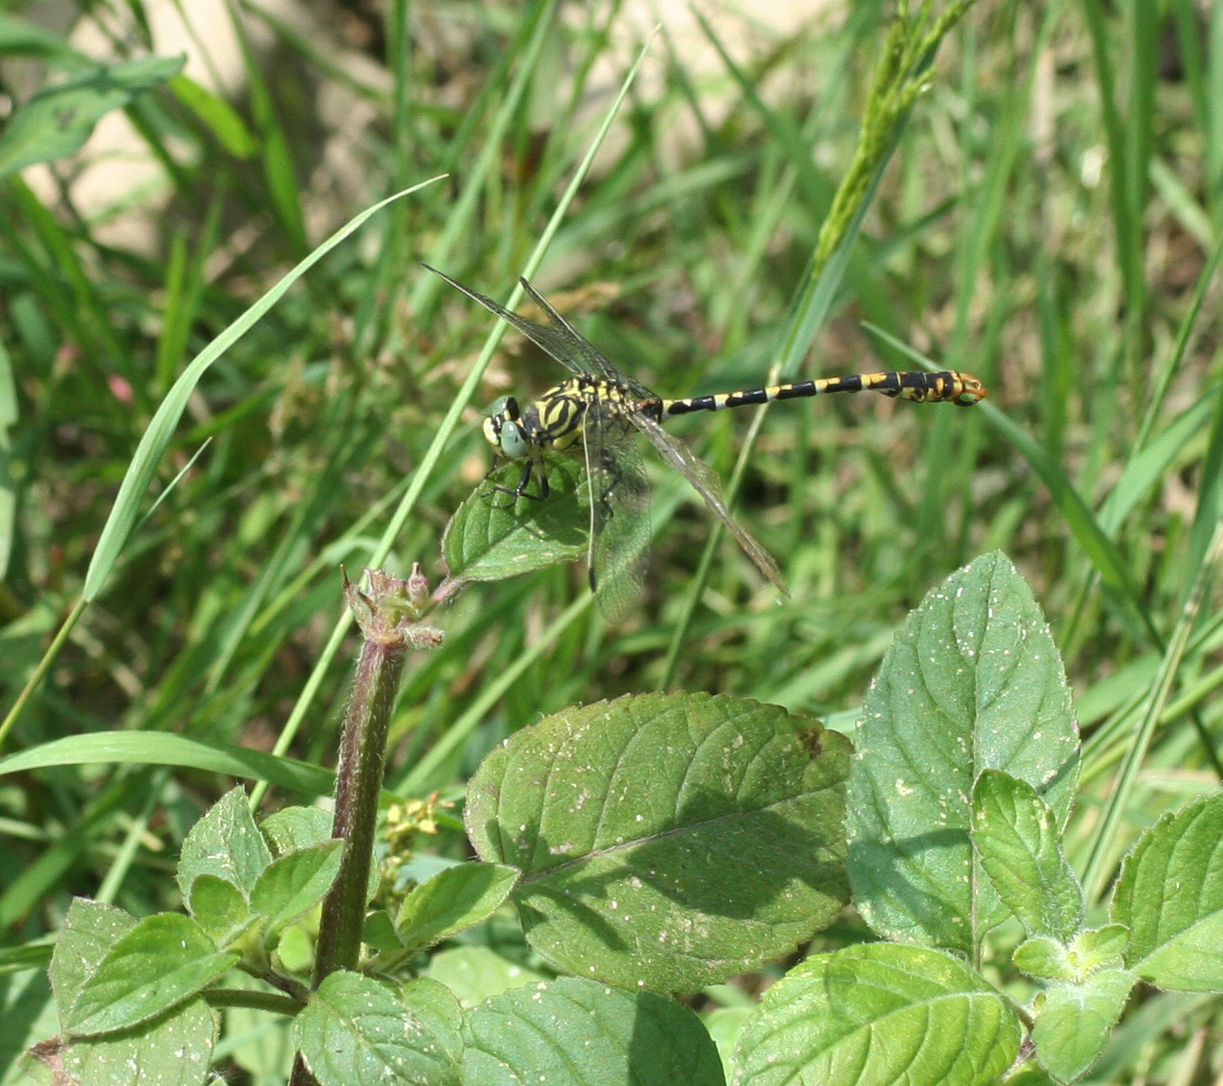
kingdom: Animalia
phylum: Arthropoda
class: Insecta
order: Odonata
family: Gomphidae
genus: Onychogomphus
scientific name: Onychogomphus forcipatus
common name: Small pincertail
